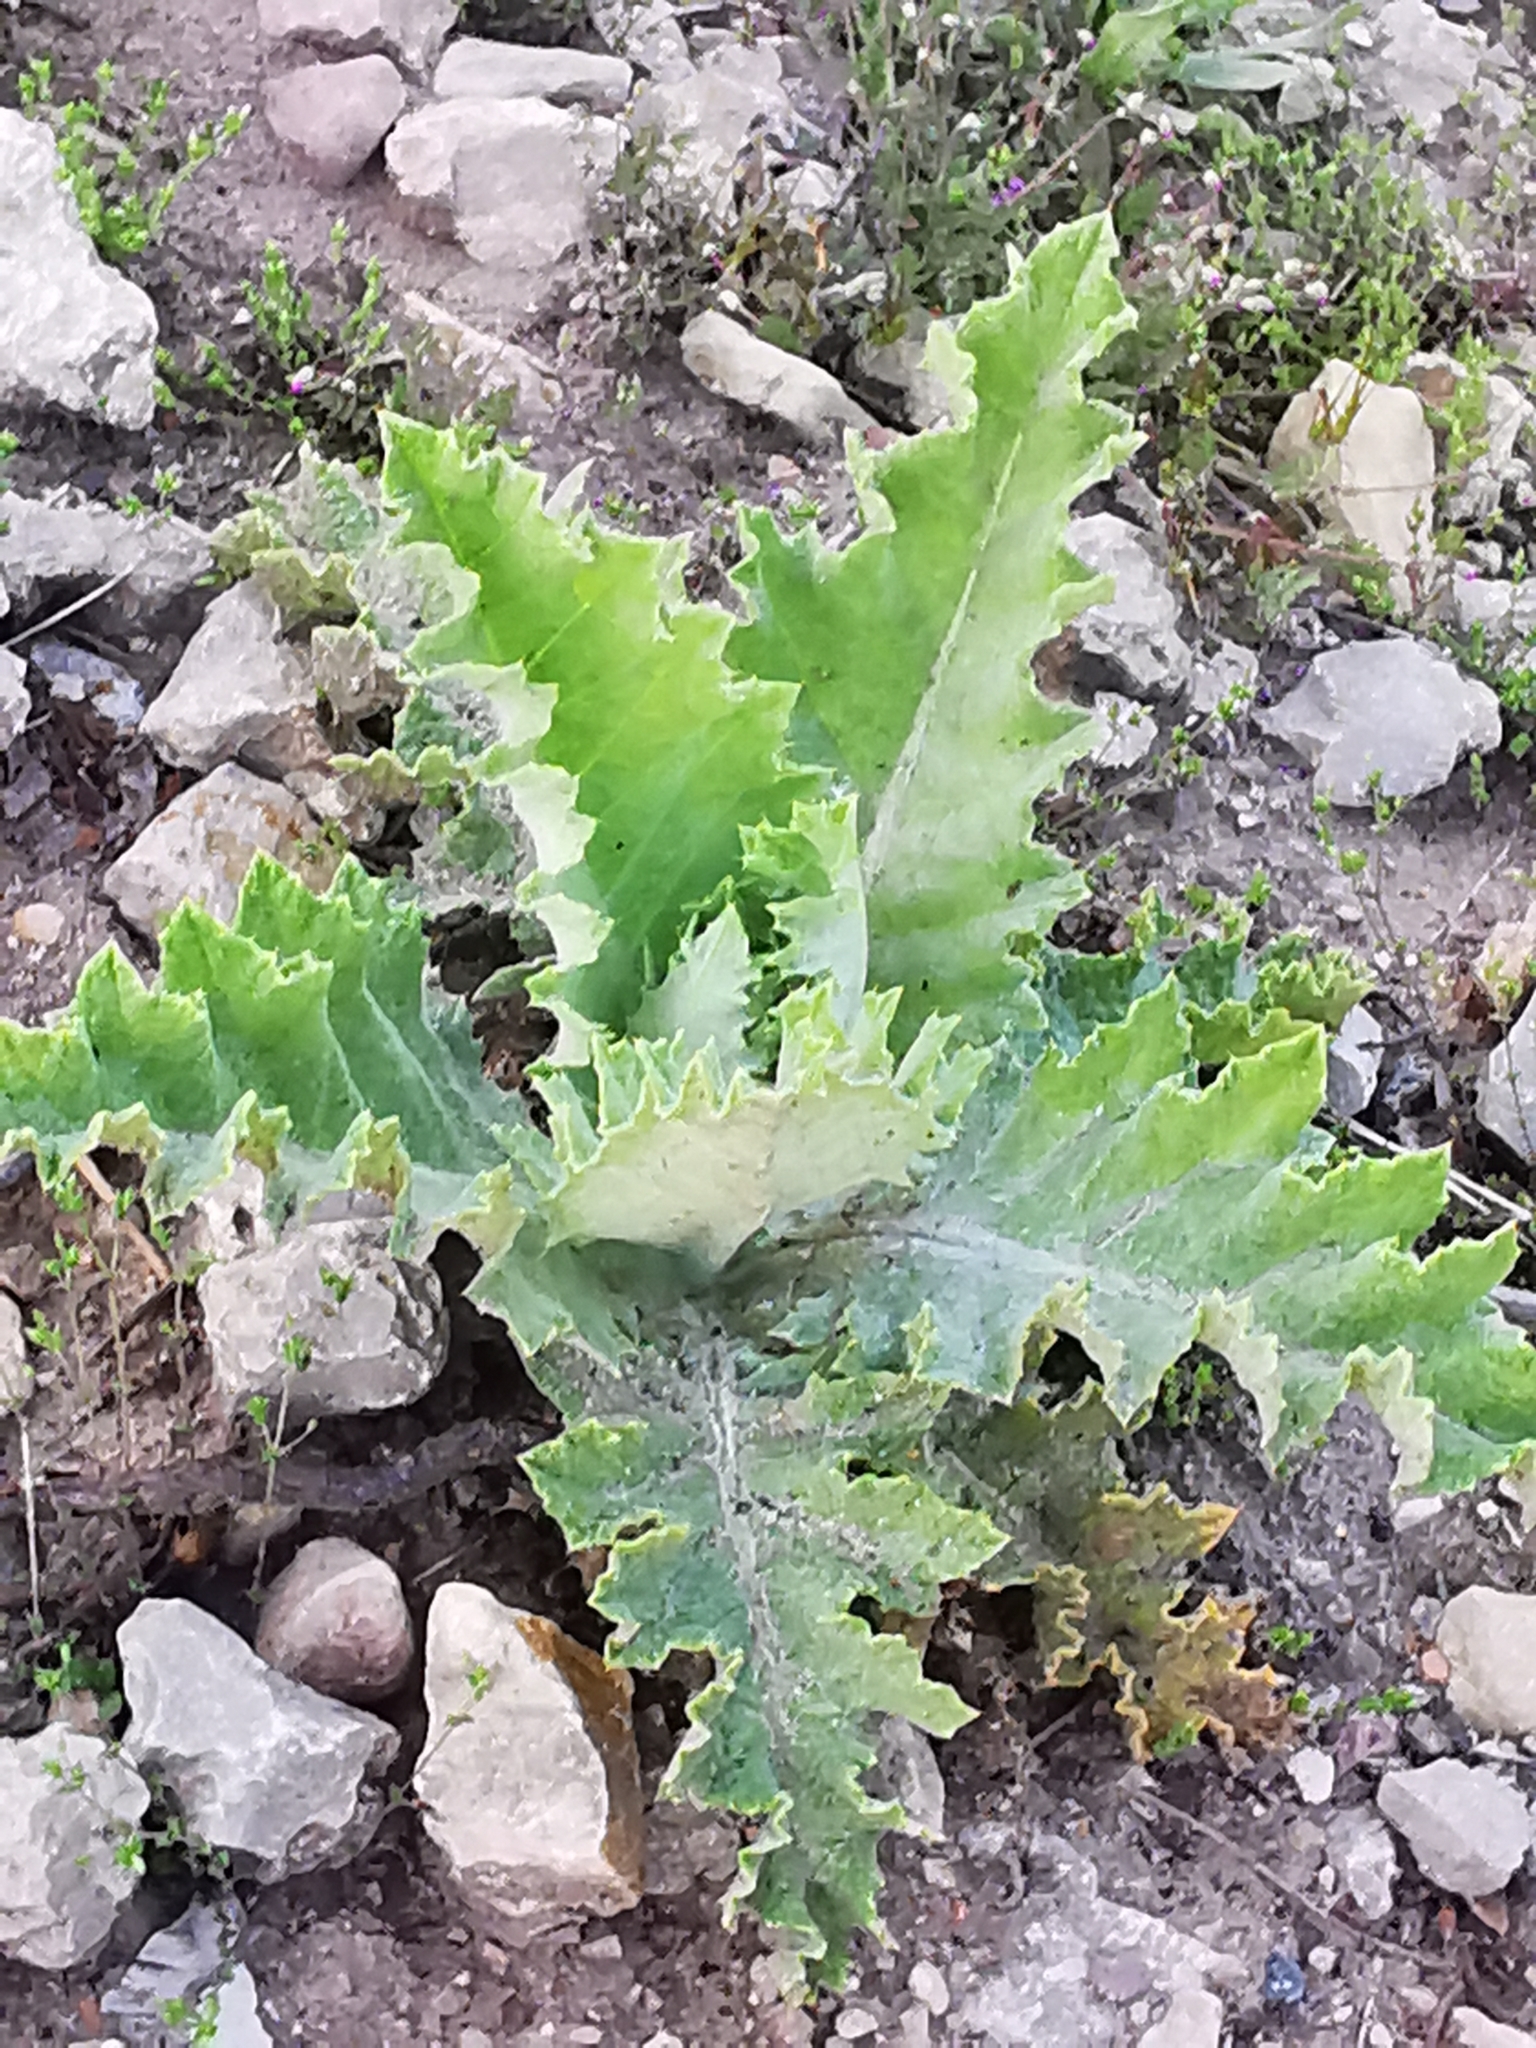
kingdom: Plantae
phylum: Tracheophyta
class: Magnoliopsida
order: Asterales
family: Asteraceae
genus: Onopordum
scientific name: Onopordum acanthium
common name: Scotch thistle
